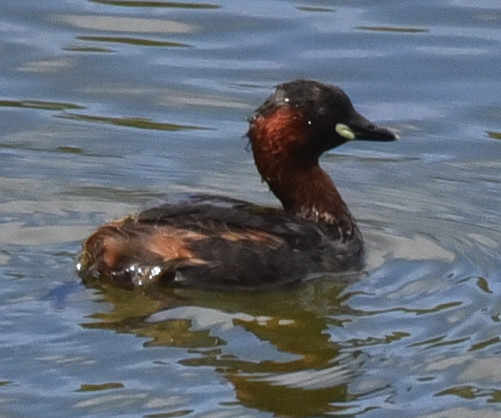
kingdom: Animalia
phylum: Chordata
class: Aves
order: Podicipediformes
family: Podicipedidae
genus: Tachybaptus
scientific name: Tachybaptus ruficollis
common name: Little grebe
